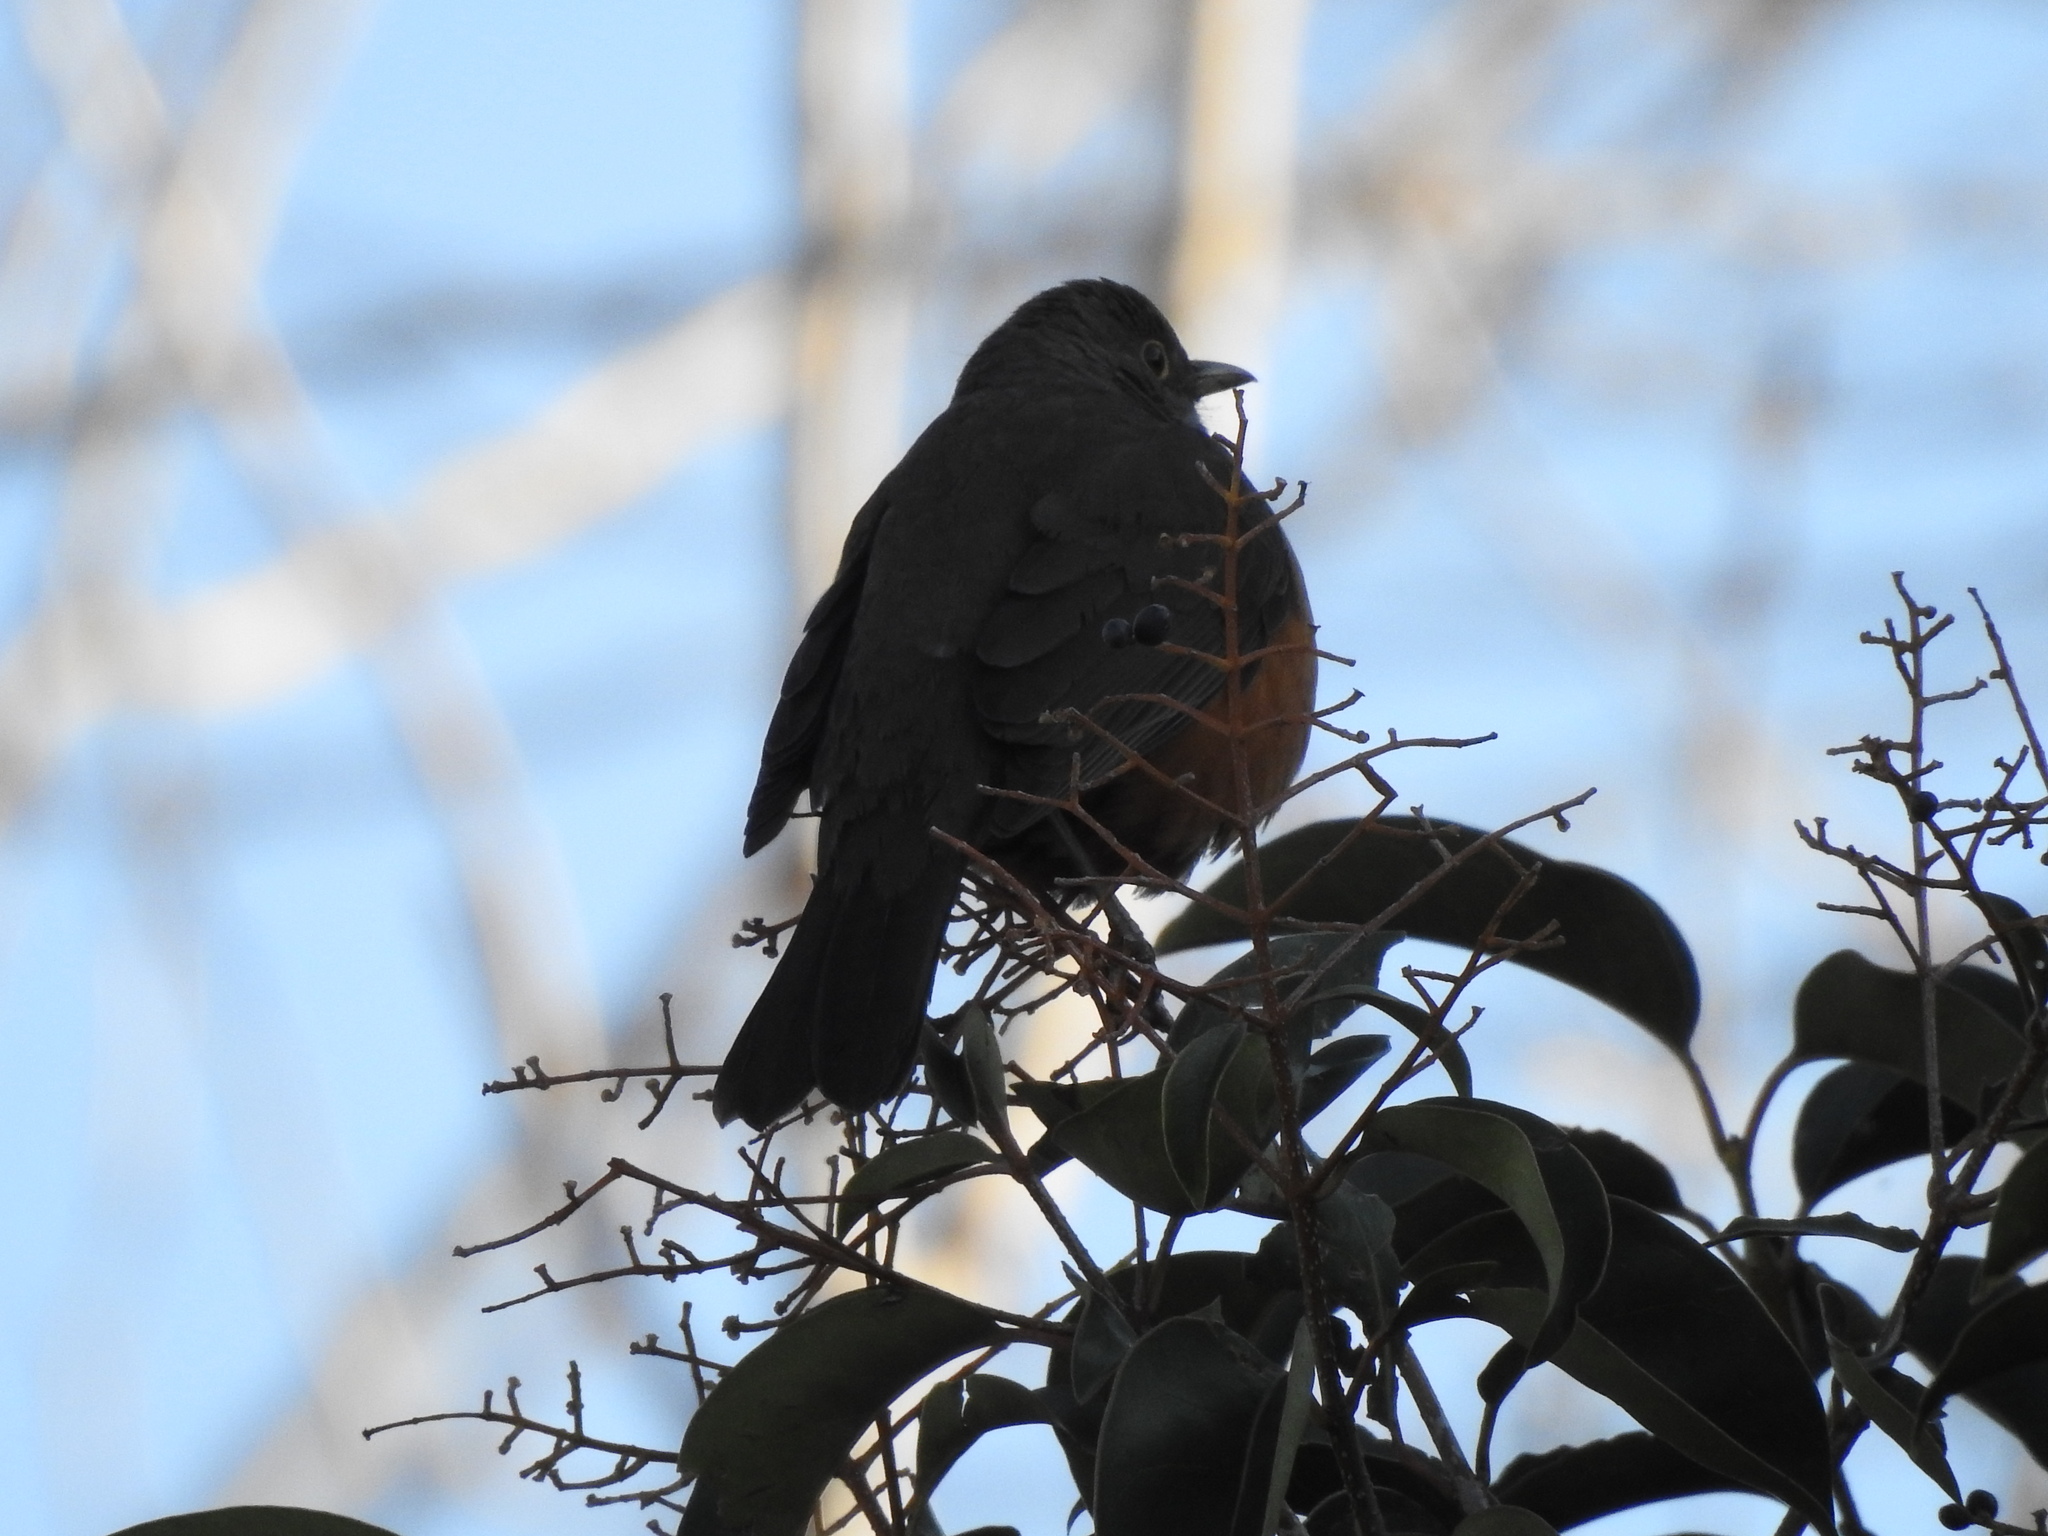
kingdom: Animalia
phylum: Chordata
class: Aves
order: Passeriformes
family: Turdidae
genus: Turdus
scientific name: Turdus rufiventris
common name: Rufous-bellied thrush
